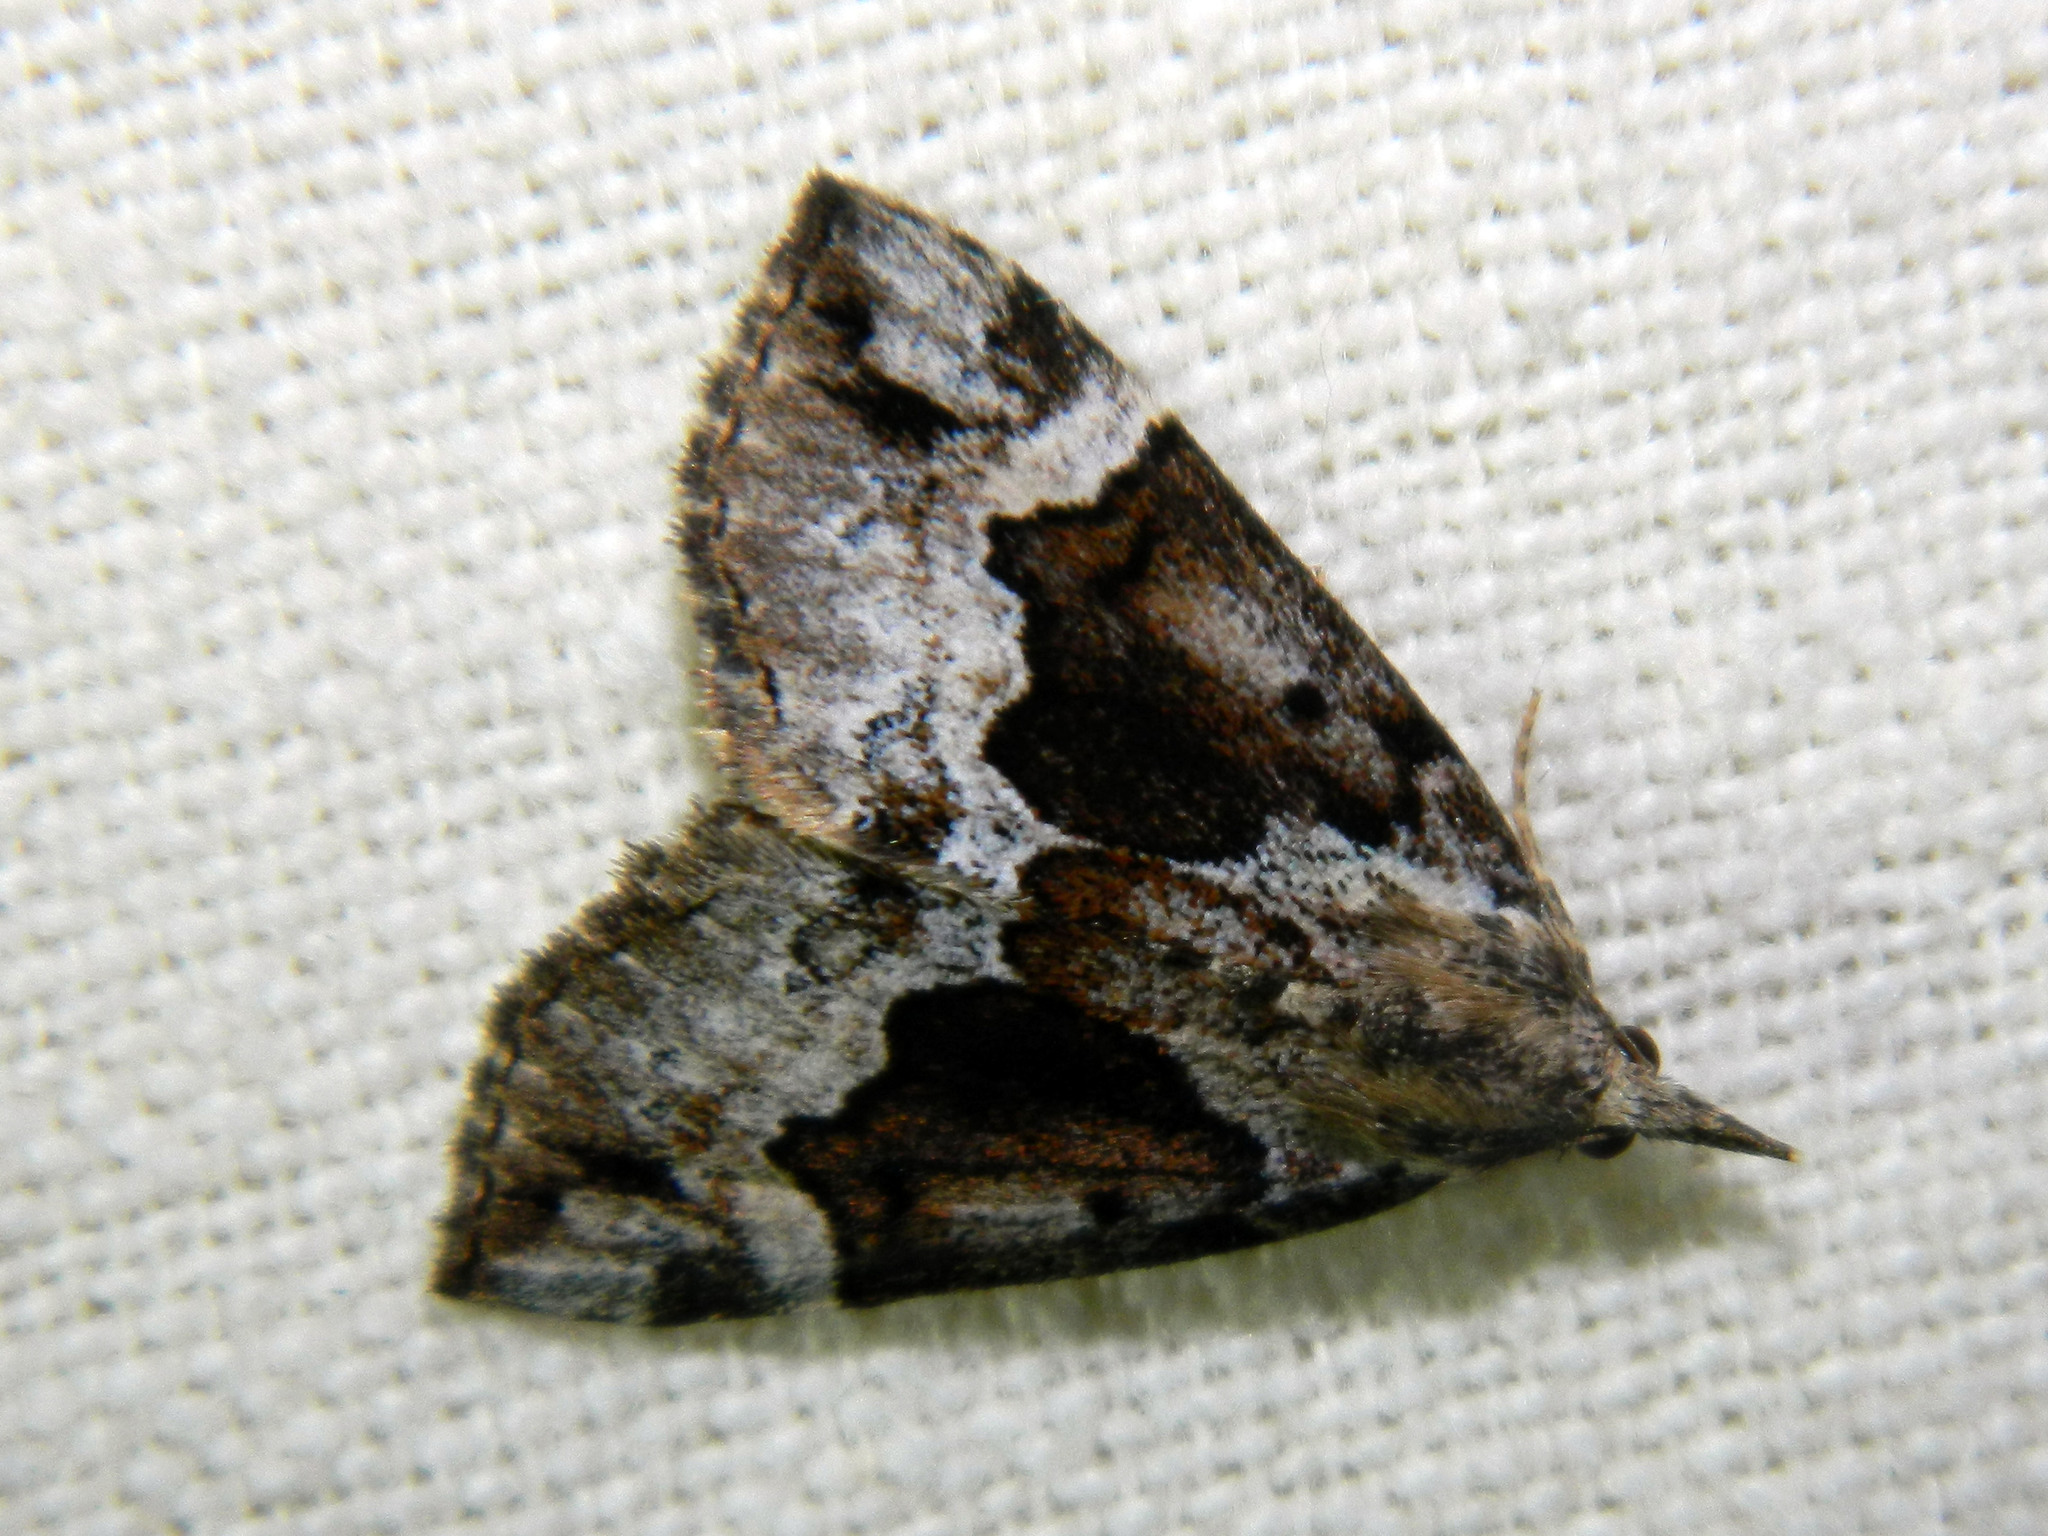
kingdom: Animalia
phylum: Arthropoda
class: Insecta
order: Lepidoptera
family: Erebidae
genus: Hypena
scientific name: Hypena palparia
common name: Mottled bomolocha moth
